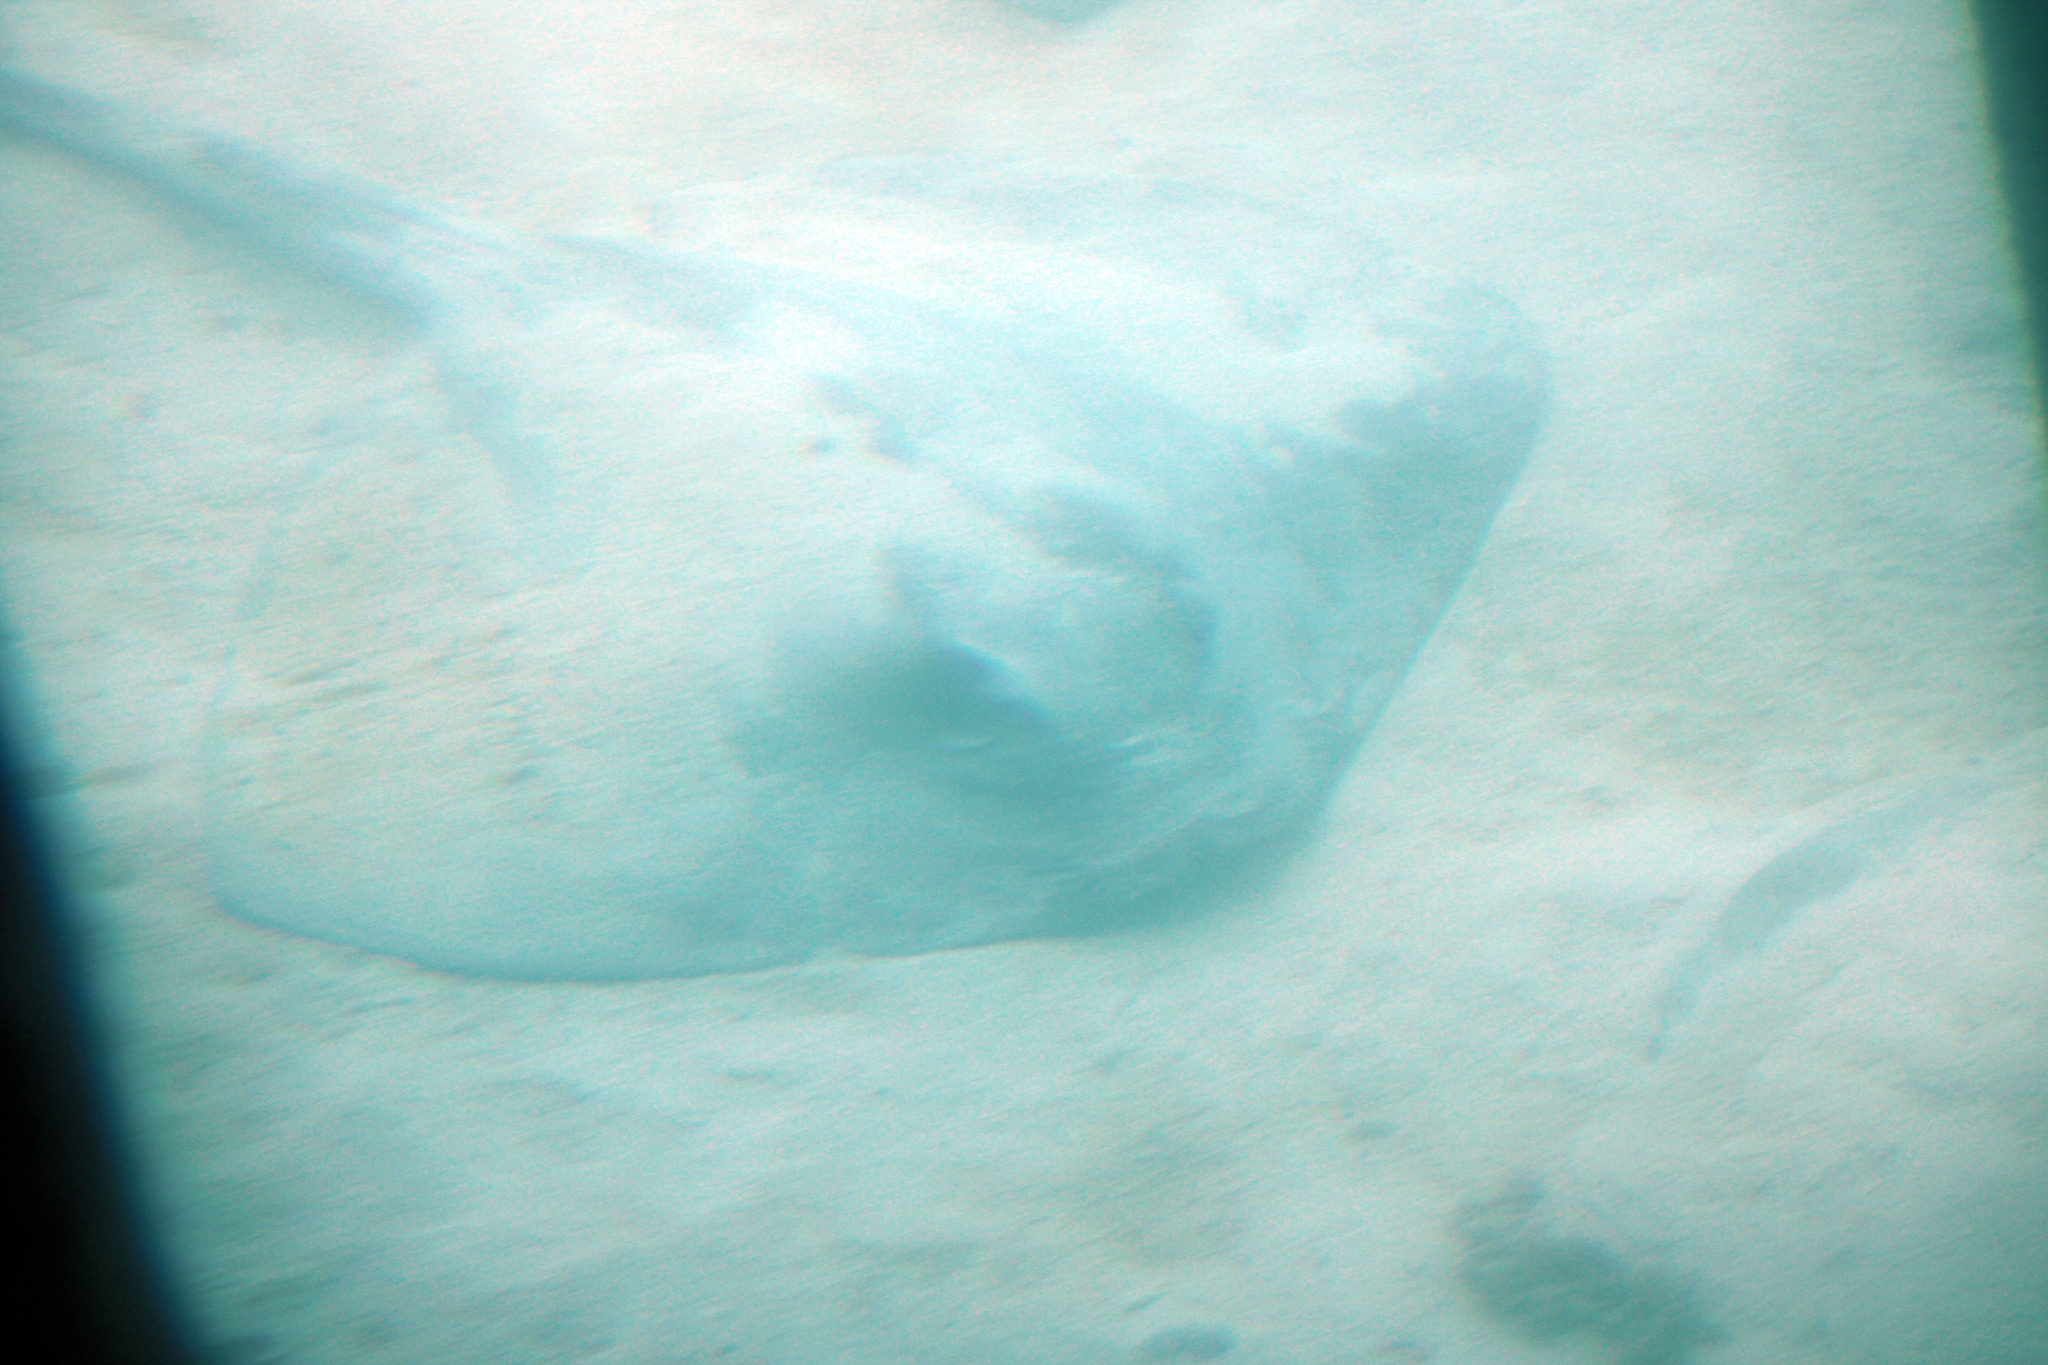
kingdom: Animalia
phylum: Chordata
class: Elasmobranchii
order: Myliobatiformes
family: Dasyatidae
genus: Pastinachus
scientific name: Pastinachus ater
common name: Banana-tail ray
